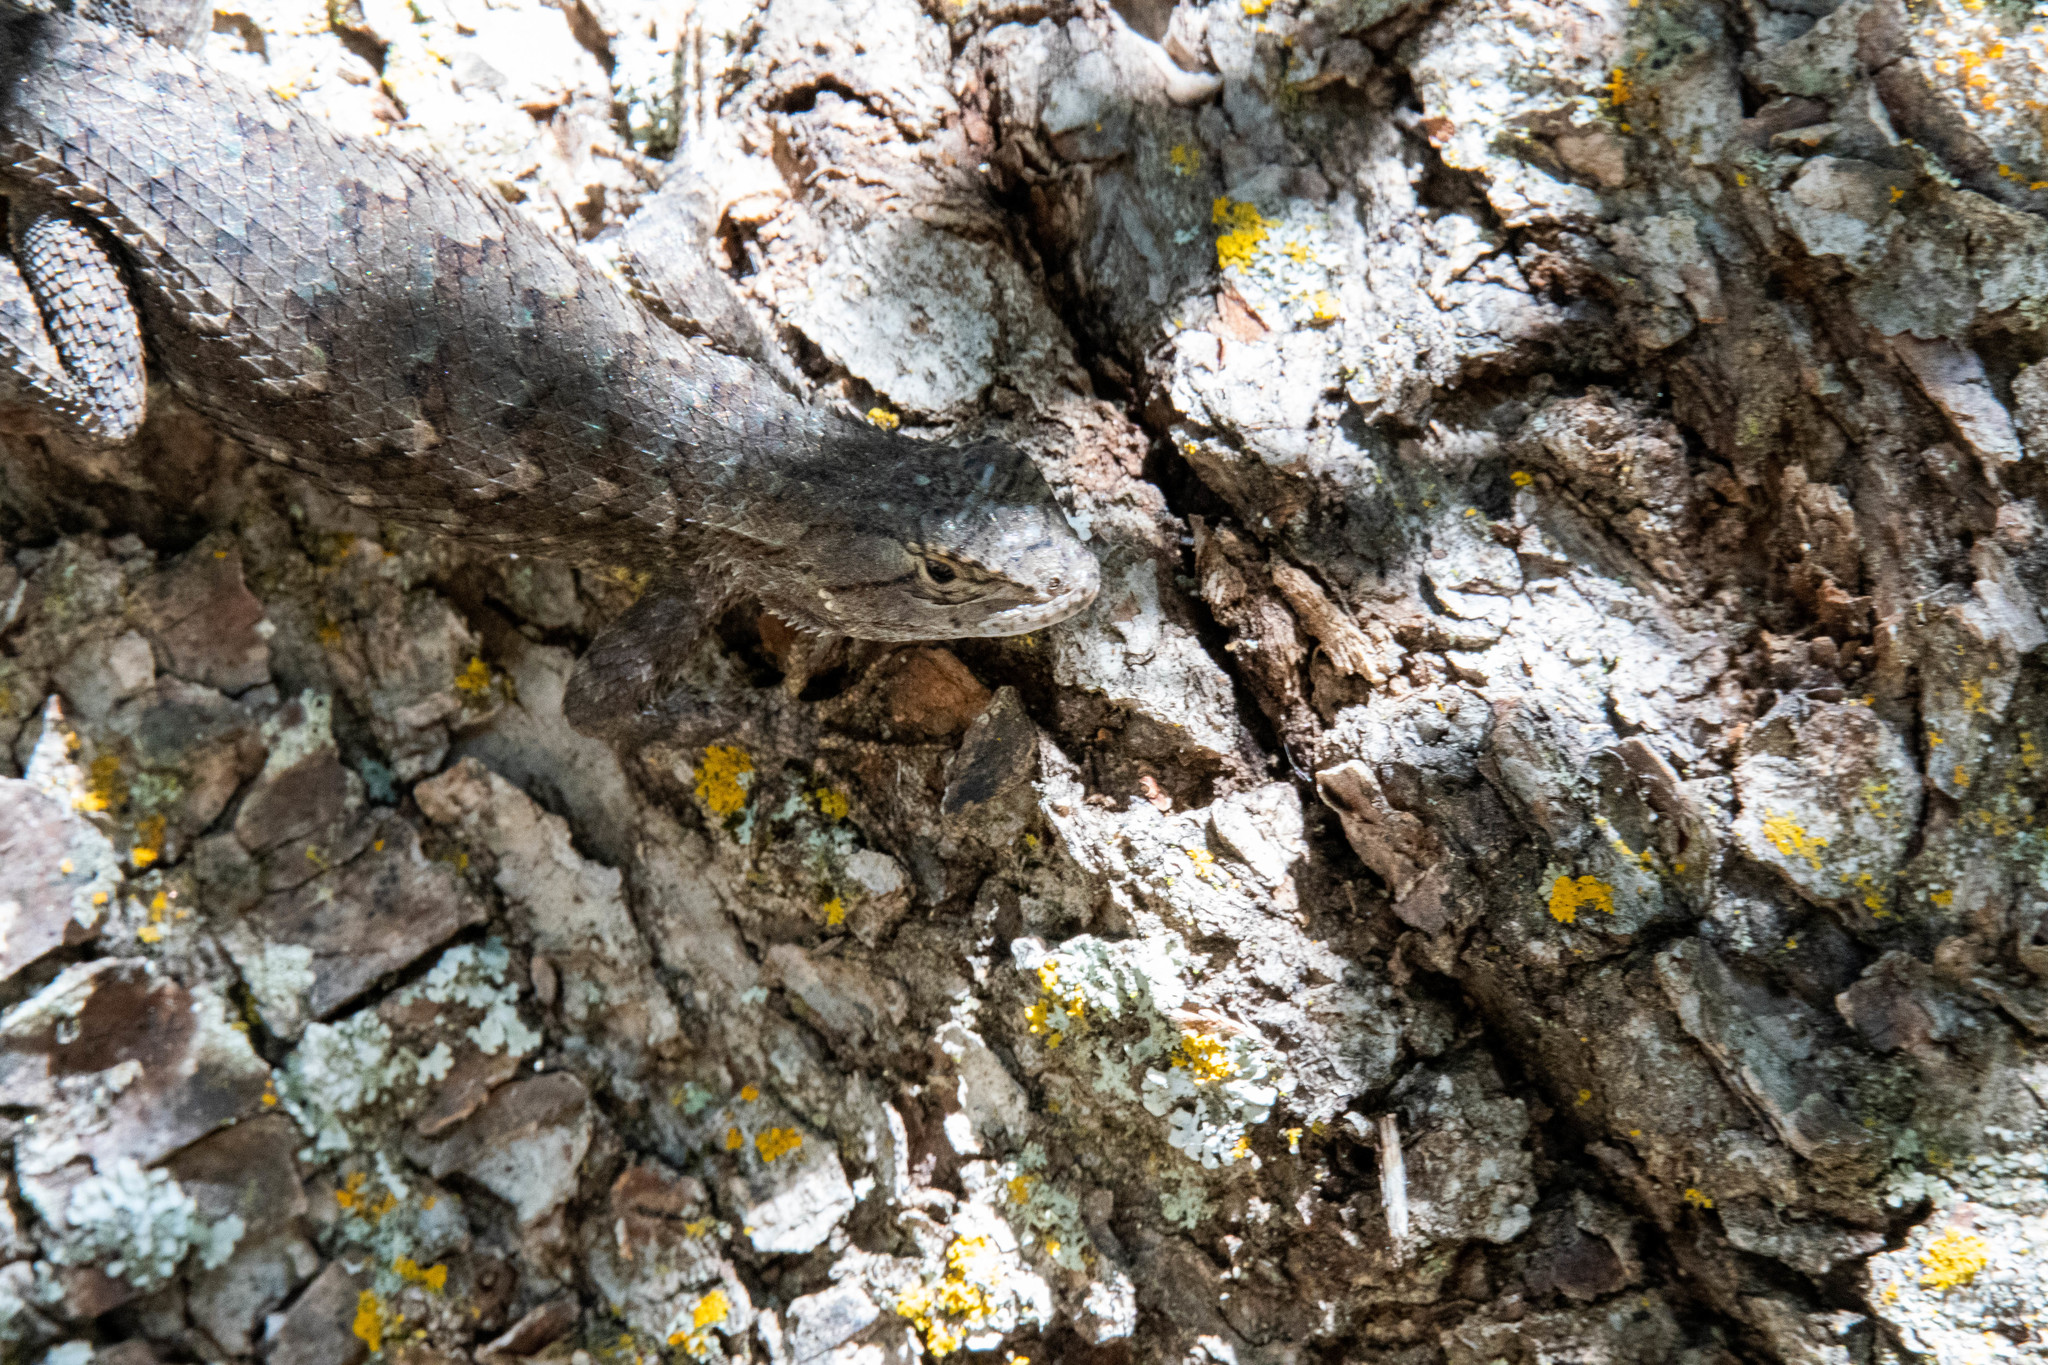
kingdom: Animalia
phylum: Chordata
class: Squamata
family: Phrynosomatidae
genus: Sceloporus
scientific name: Sceloporus occidentalis
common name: Western fence lizard
